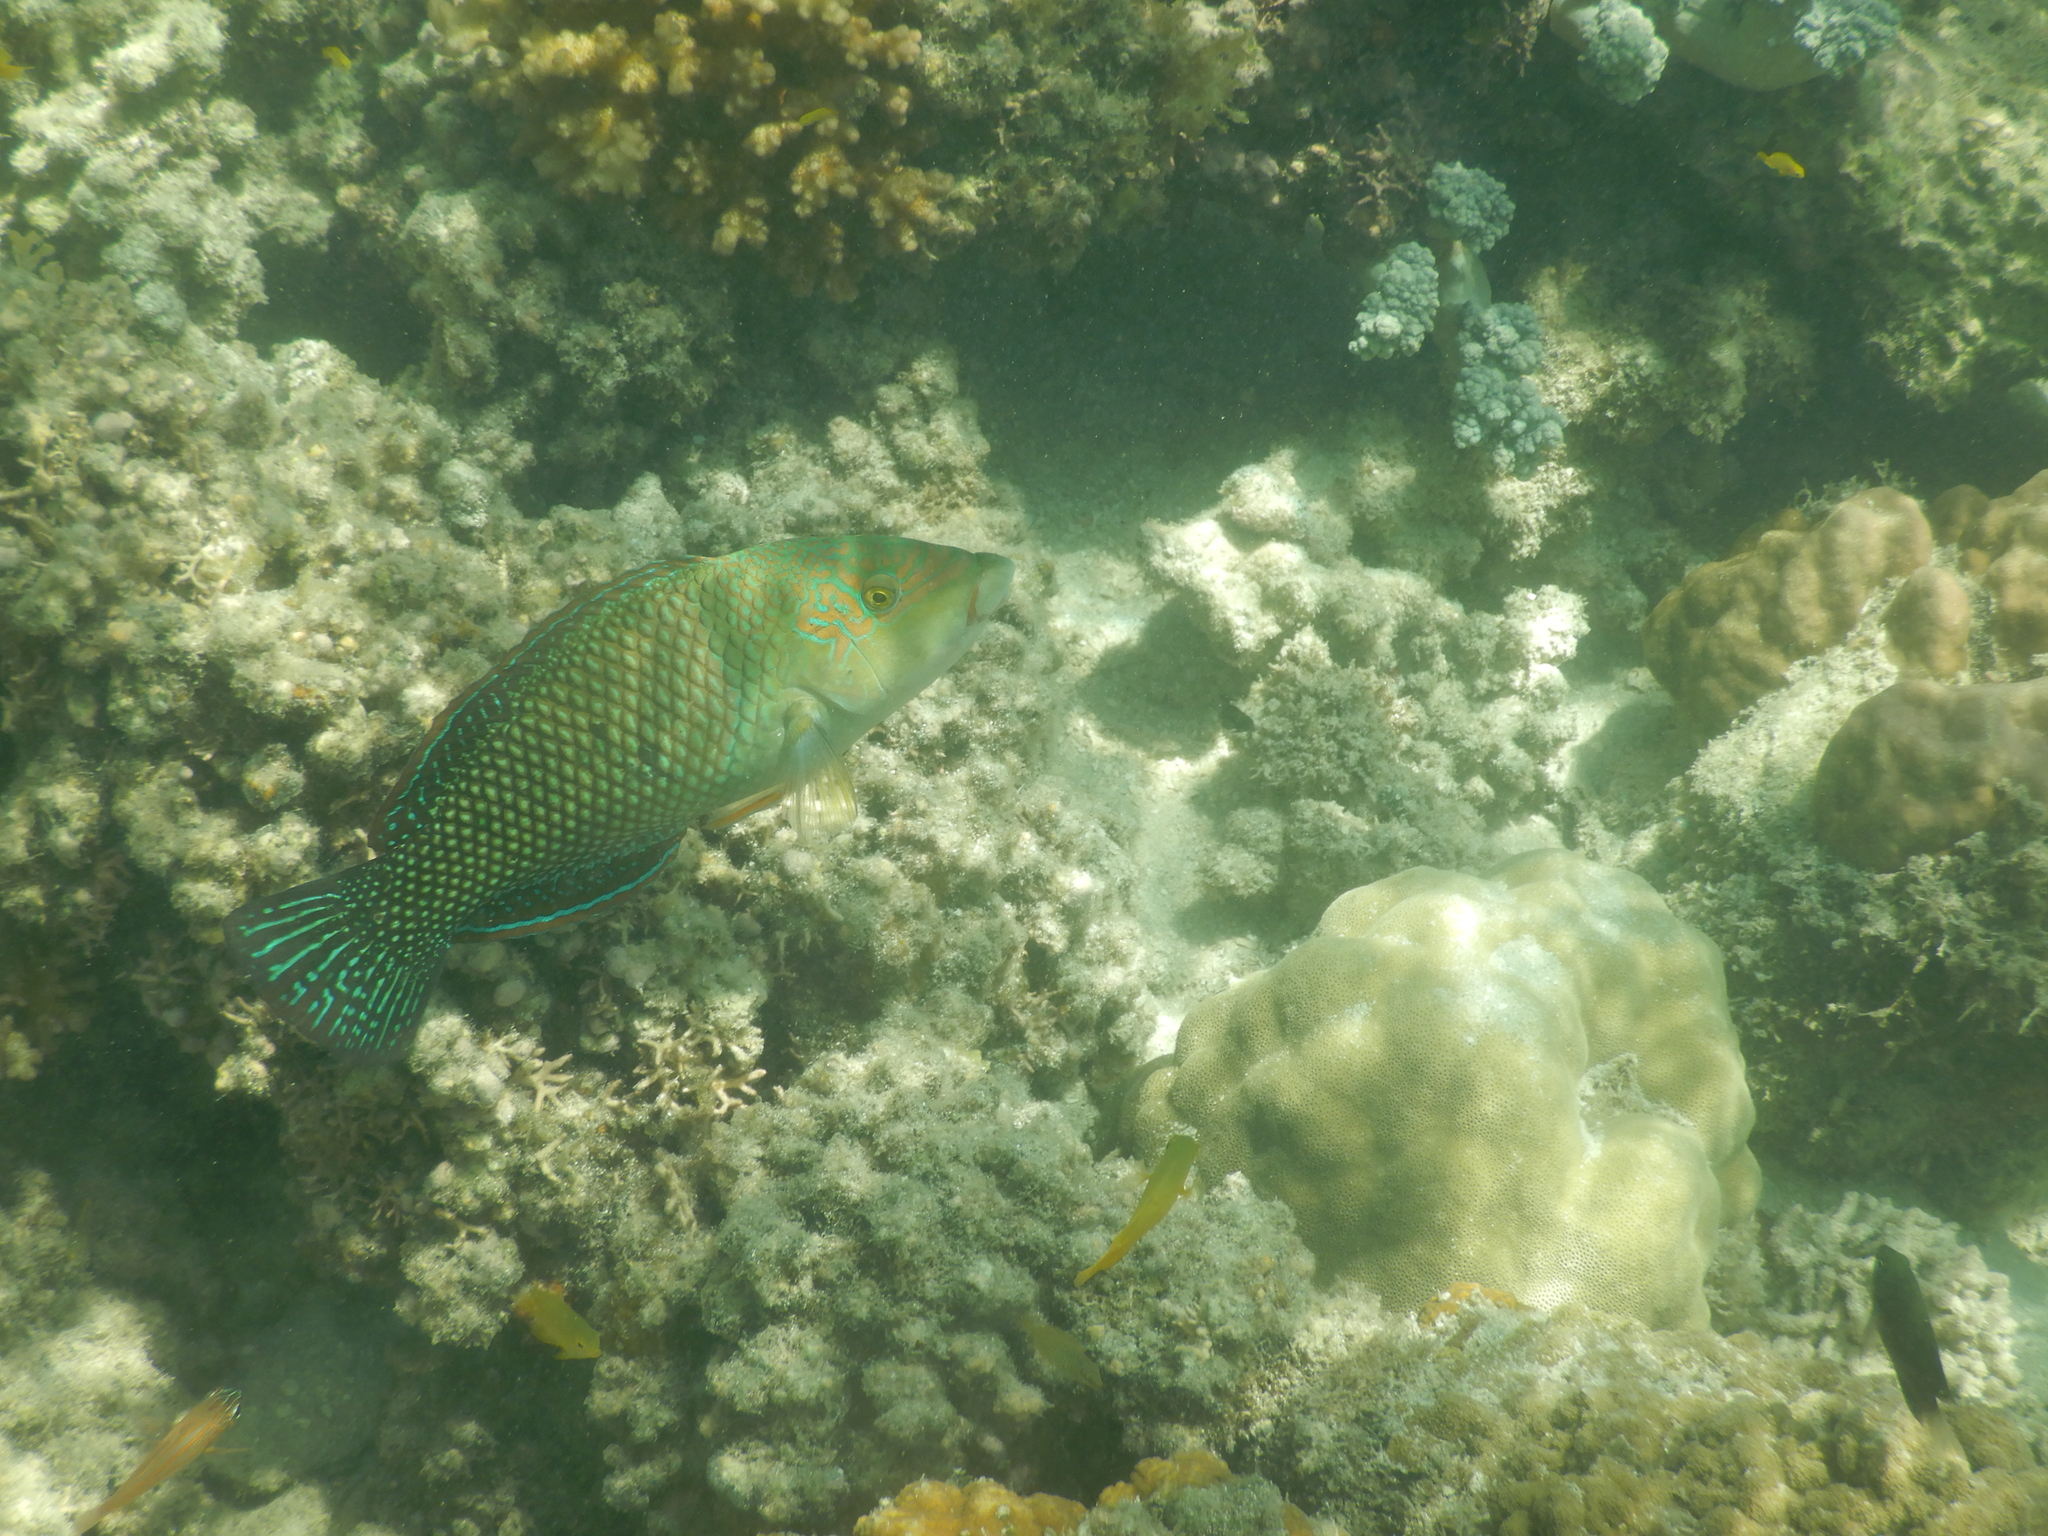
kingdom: Animalia
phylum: Chordata
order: Perciformes
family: Labridae
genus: Hemigymnus
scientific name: Hemigymnus melapterus
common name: Blackeye thicklip
